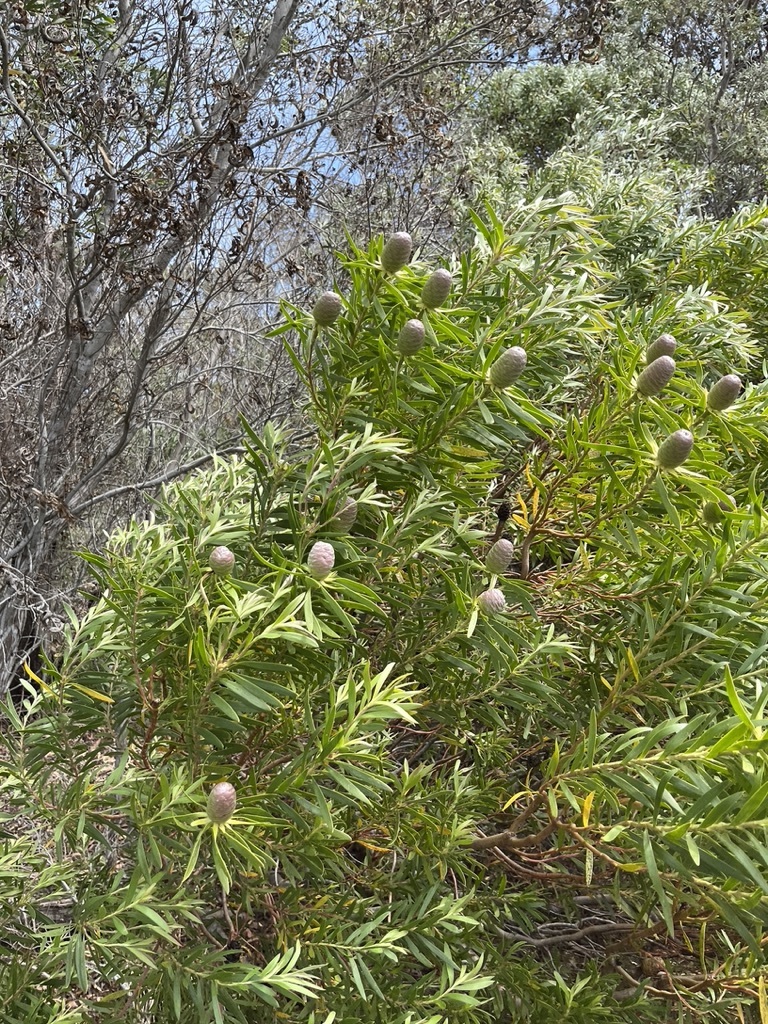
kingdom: Plantae
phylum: Tracheophyta
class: Magnoliopsida
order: Proteales
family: Proteaceae
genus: Leucadendron
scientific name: Leucadendron coniferum
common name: Dune conebush
